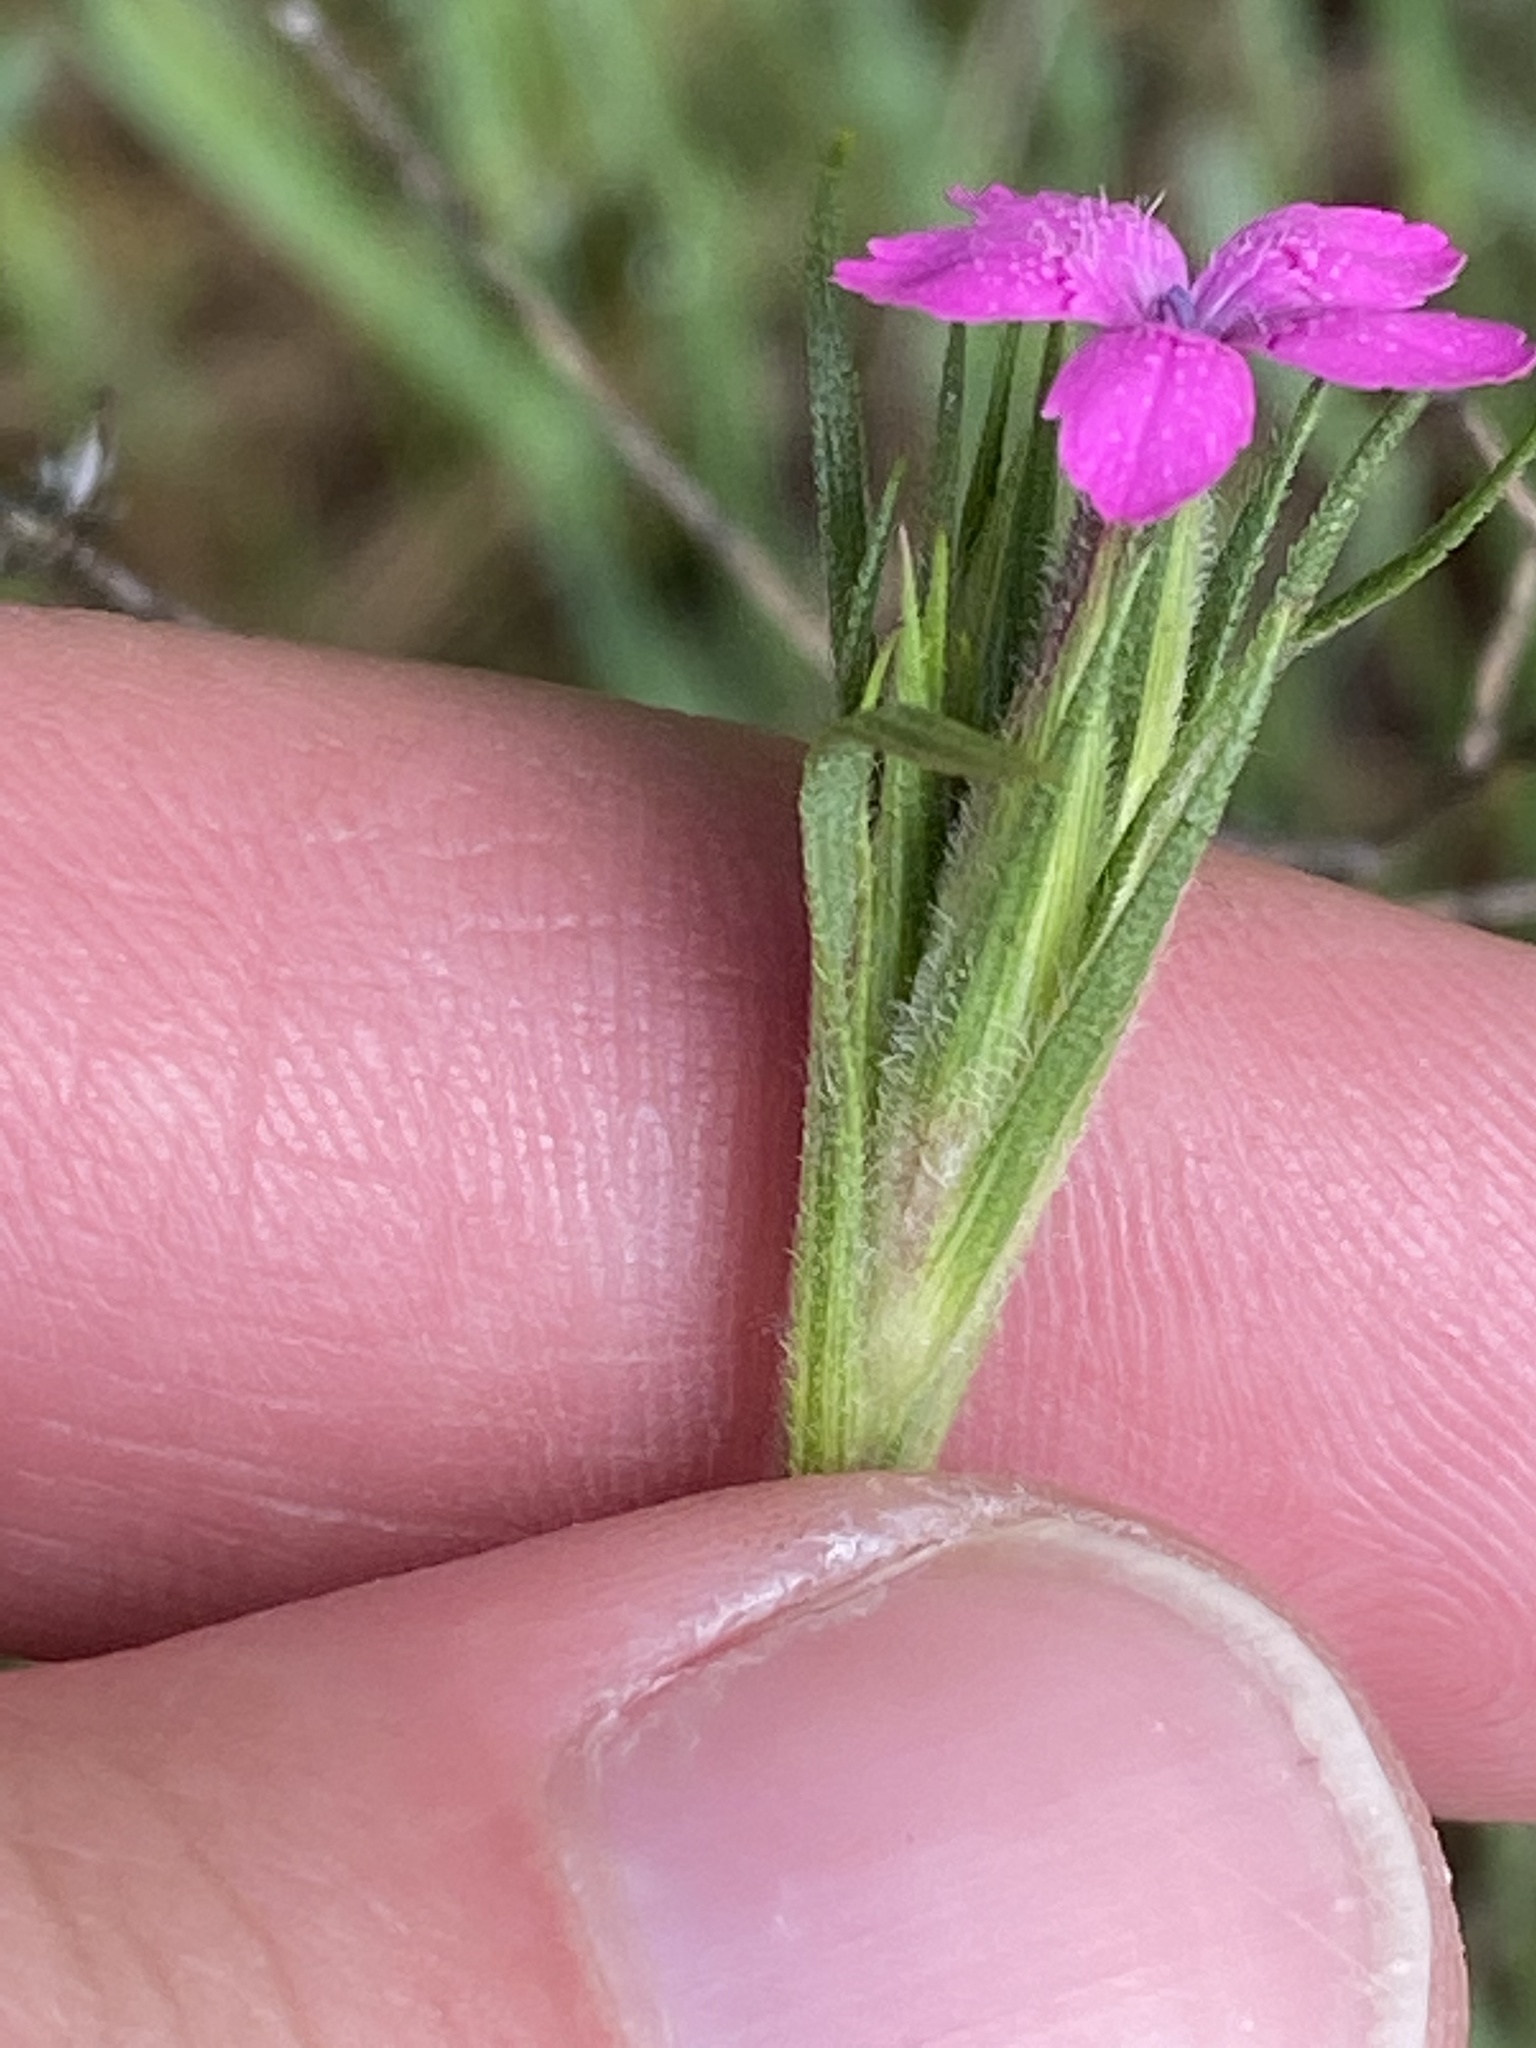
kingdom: Plantae
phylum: Tracheophyta
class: Magnoliopsida
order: Caryophyllales
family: Caryophyllaceae
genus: Dianthus
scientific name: Dianthus armeria
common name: Deptford pink
